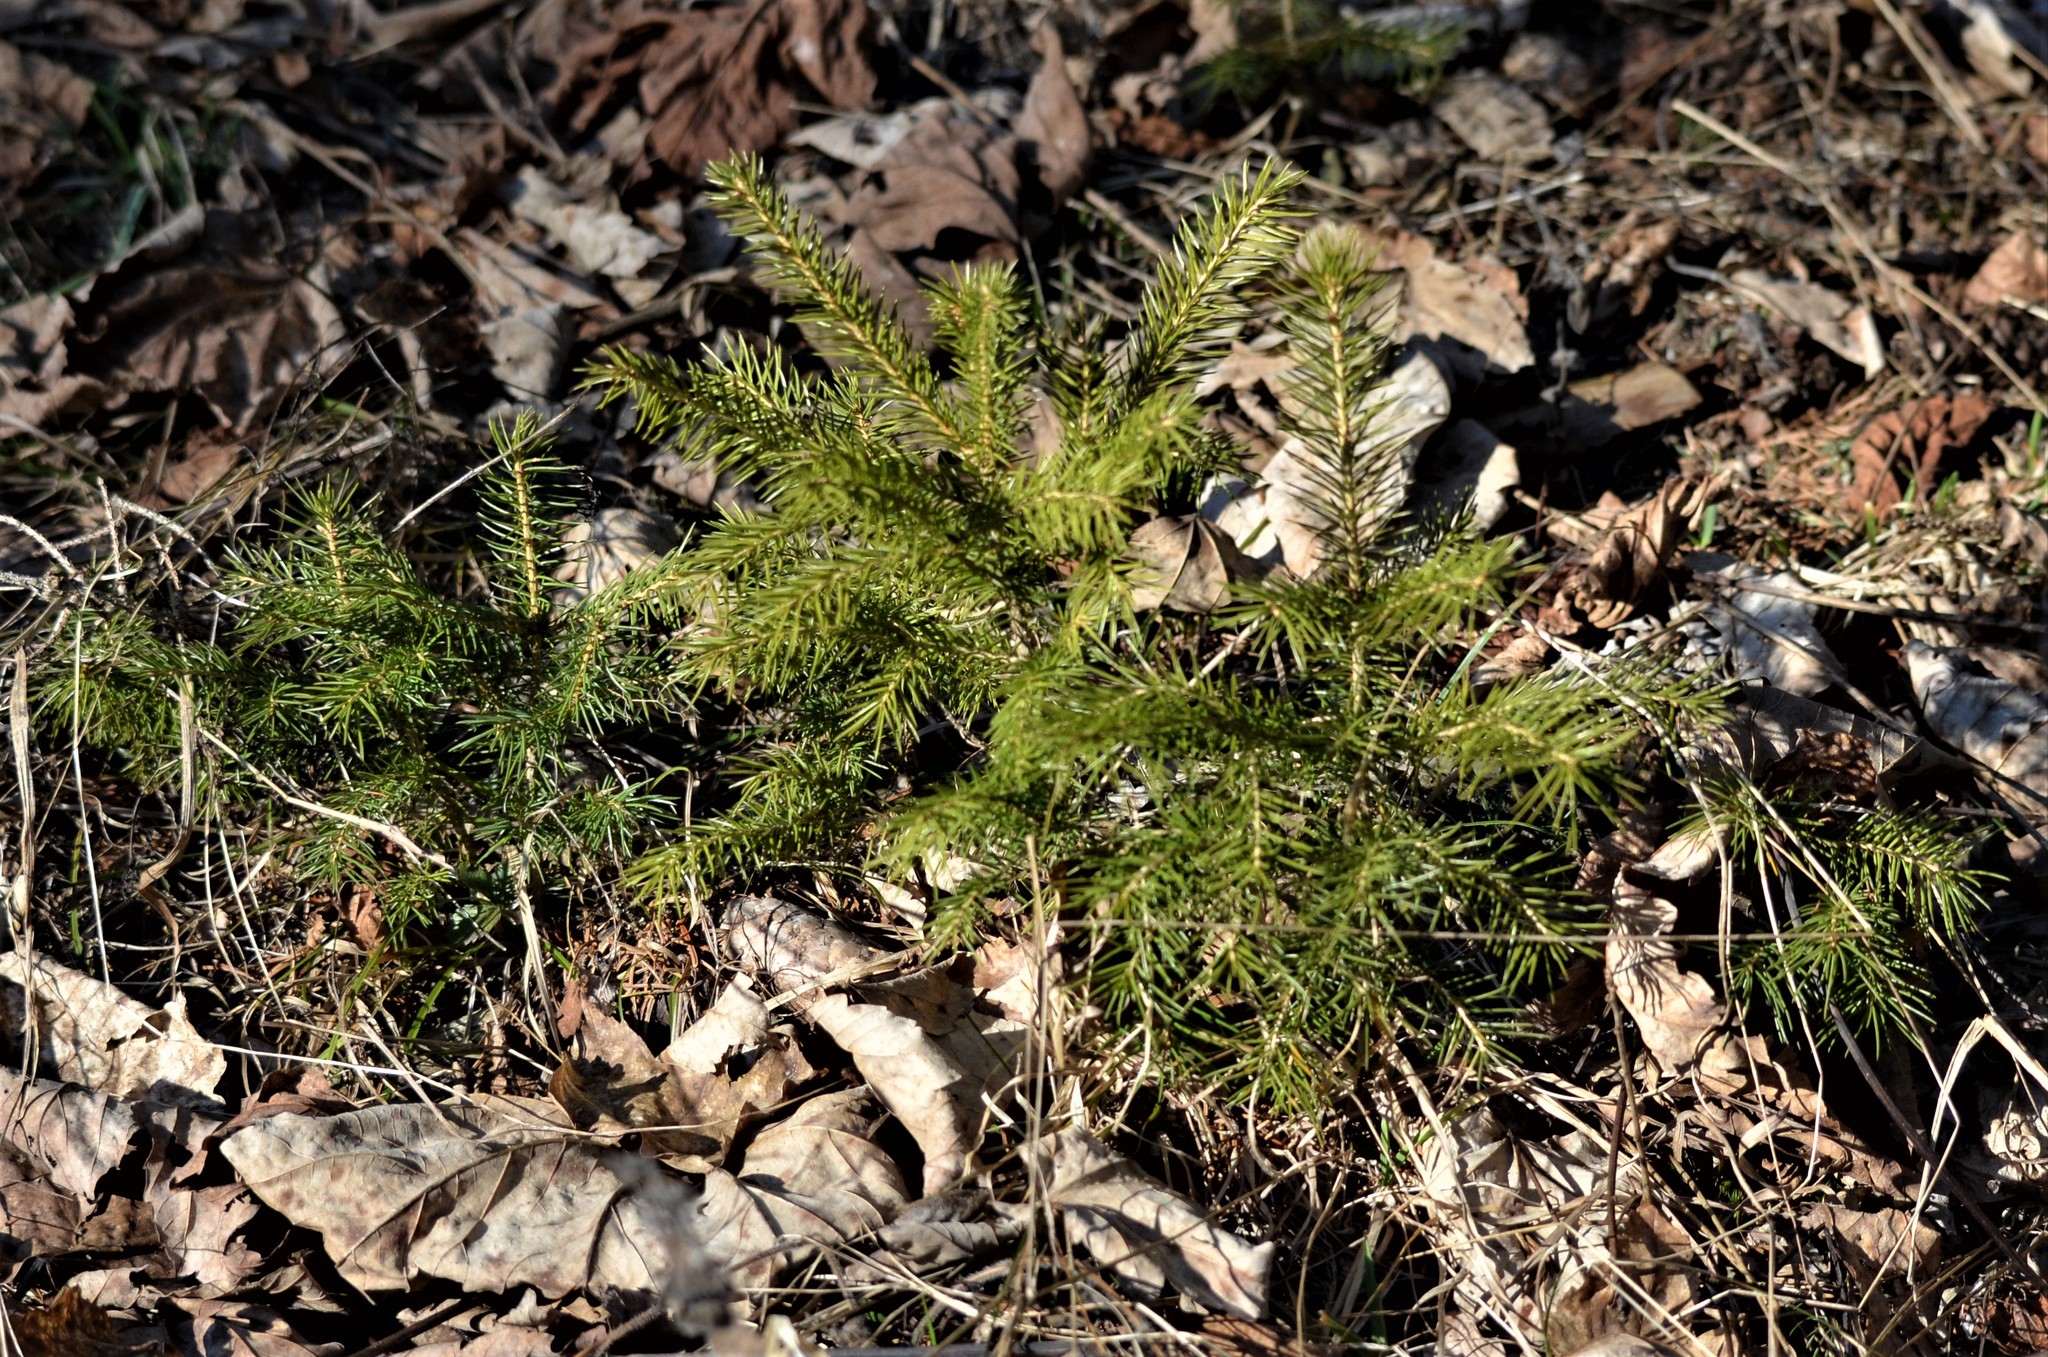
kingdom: Plantae
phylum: Tracheophyta
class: Pinopsida
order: Pinales
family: Pinaceae
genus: Picea
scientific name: Picea abies
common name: Norway spruce
